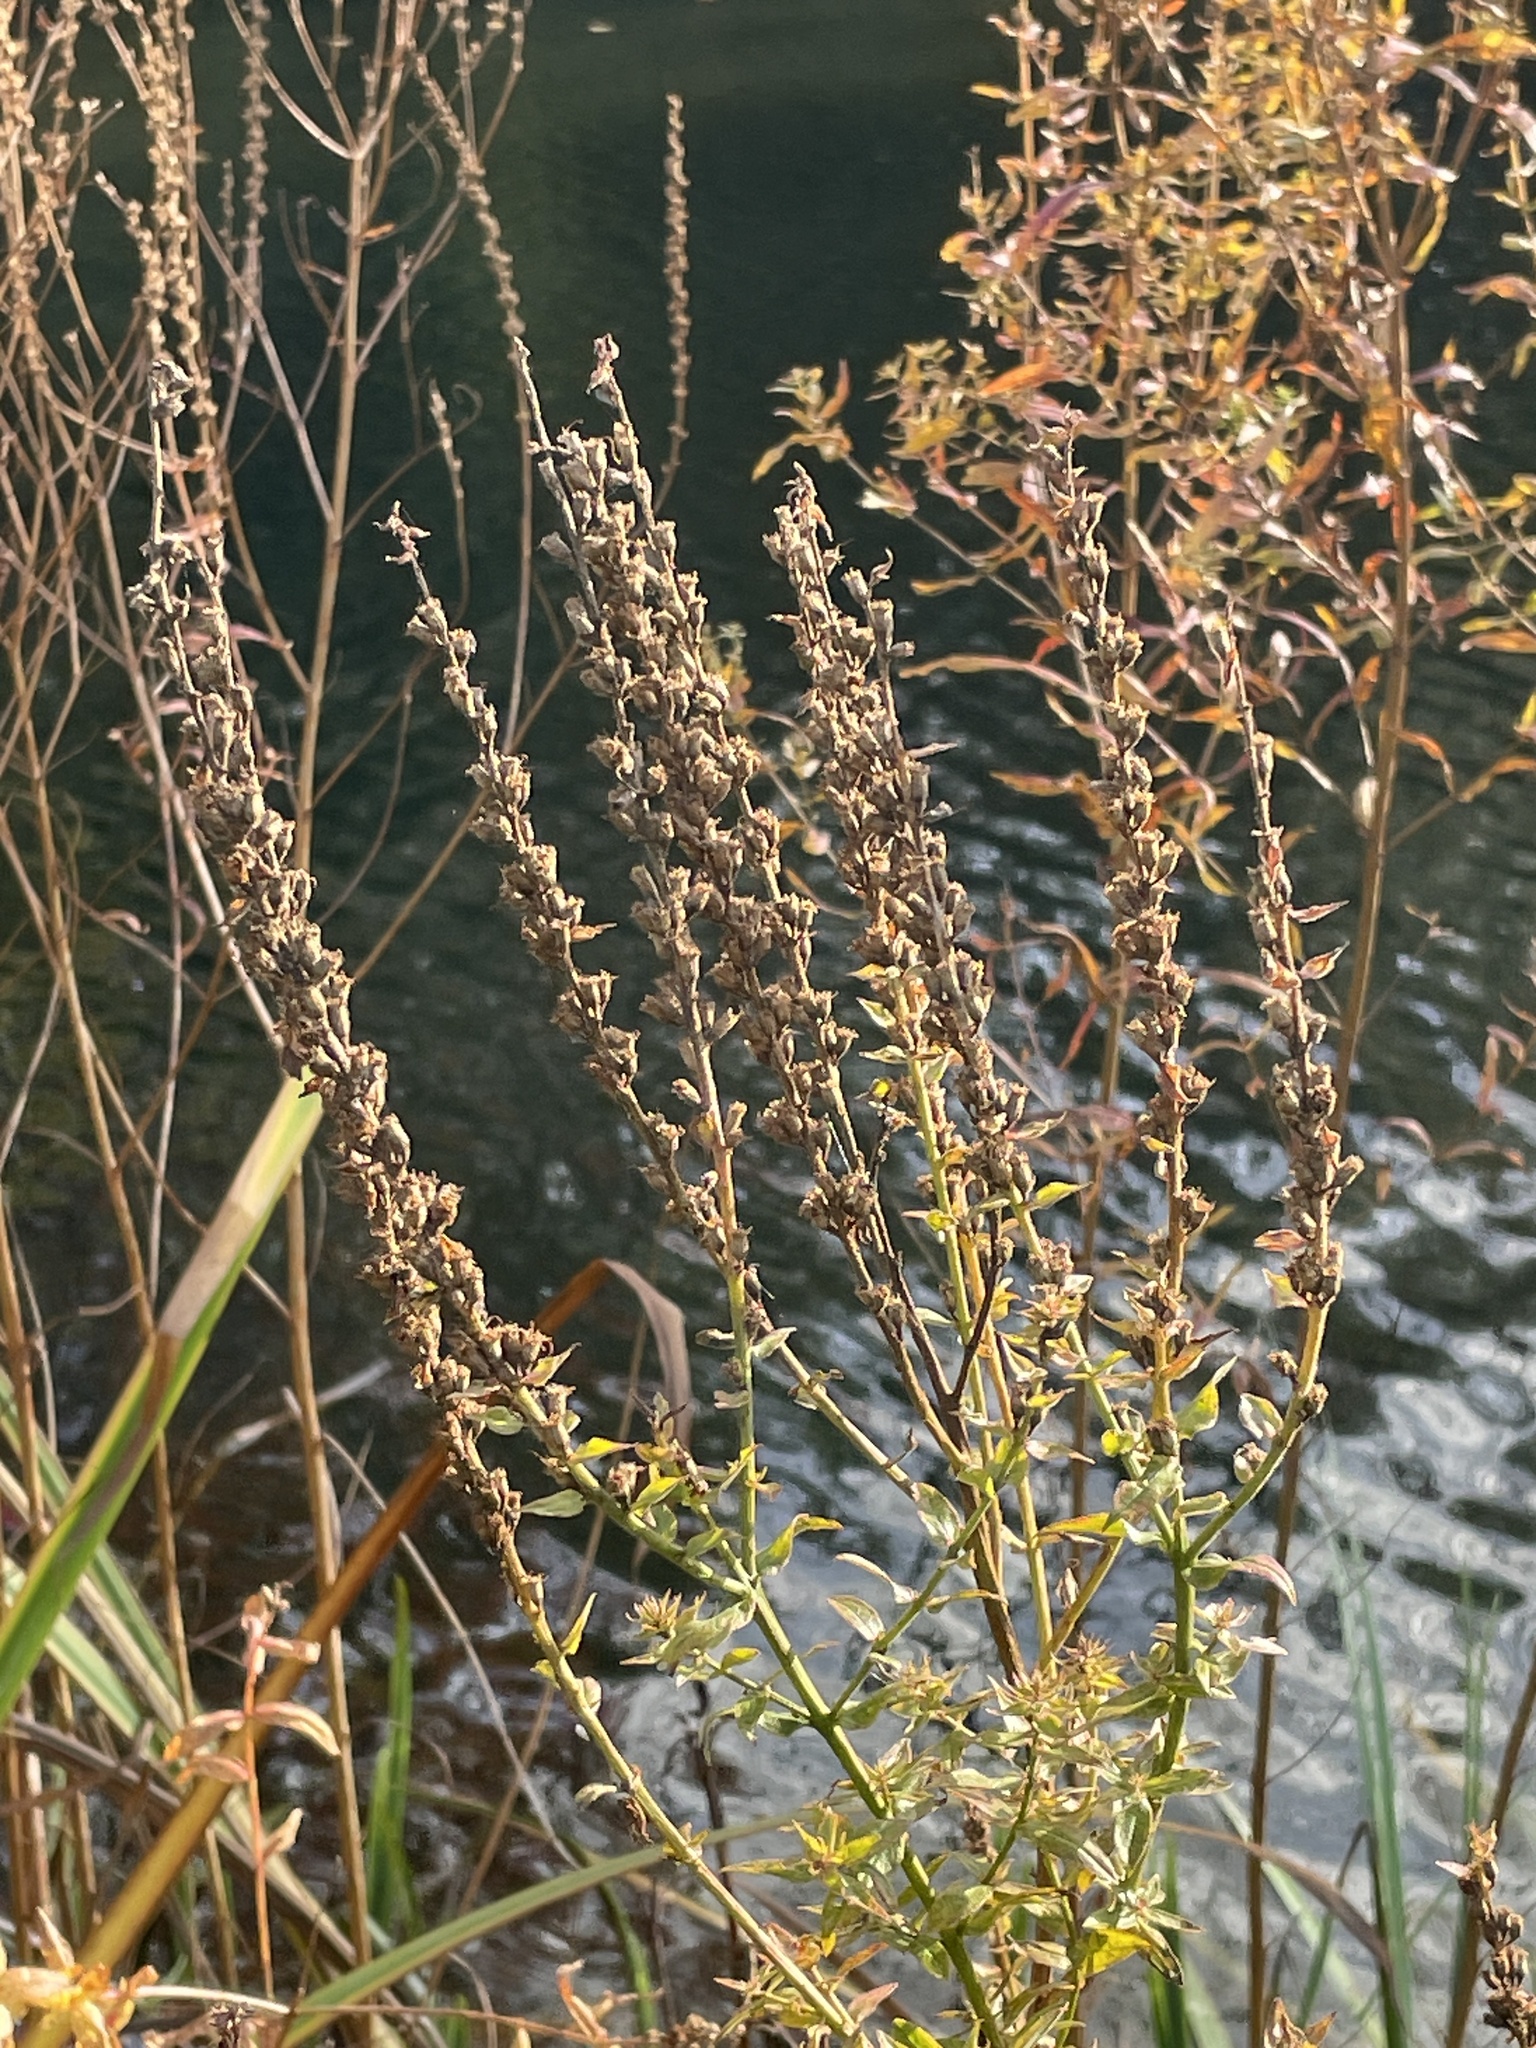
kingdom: Plantae
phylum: Tracheophyta
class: Magnoliopsida
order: Myrtales
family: Lythraceae
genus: Lythrum
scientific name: Lythrum salicaria
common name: Purple loosestrife
